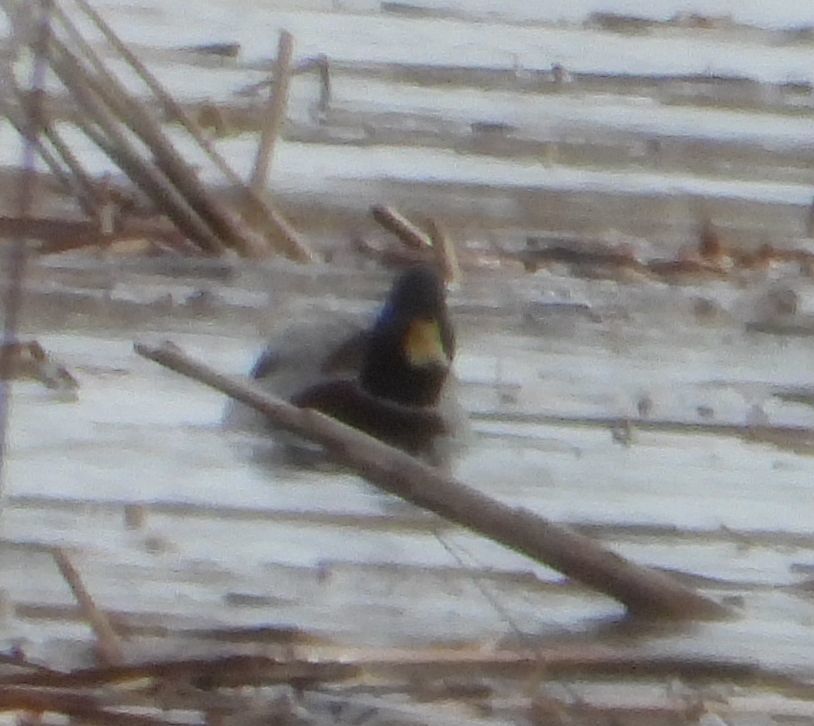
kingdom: Animalia
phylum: Chordata
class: Aves
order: Anseriformes
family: Anatidae
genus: Anas
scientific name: Anas platyrhynchos
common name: Mallard
